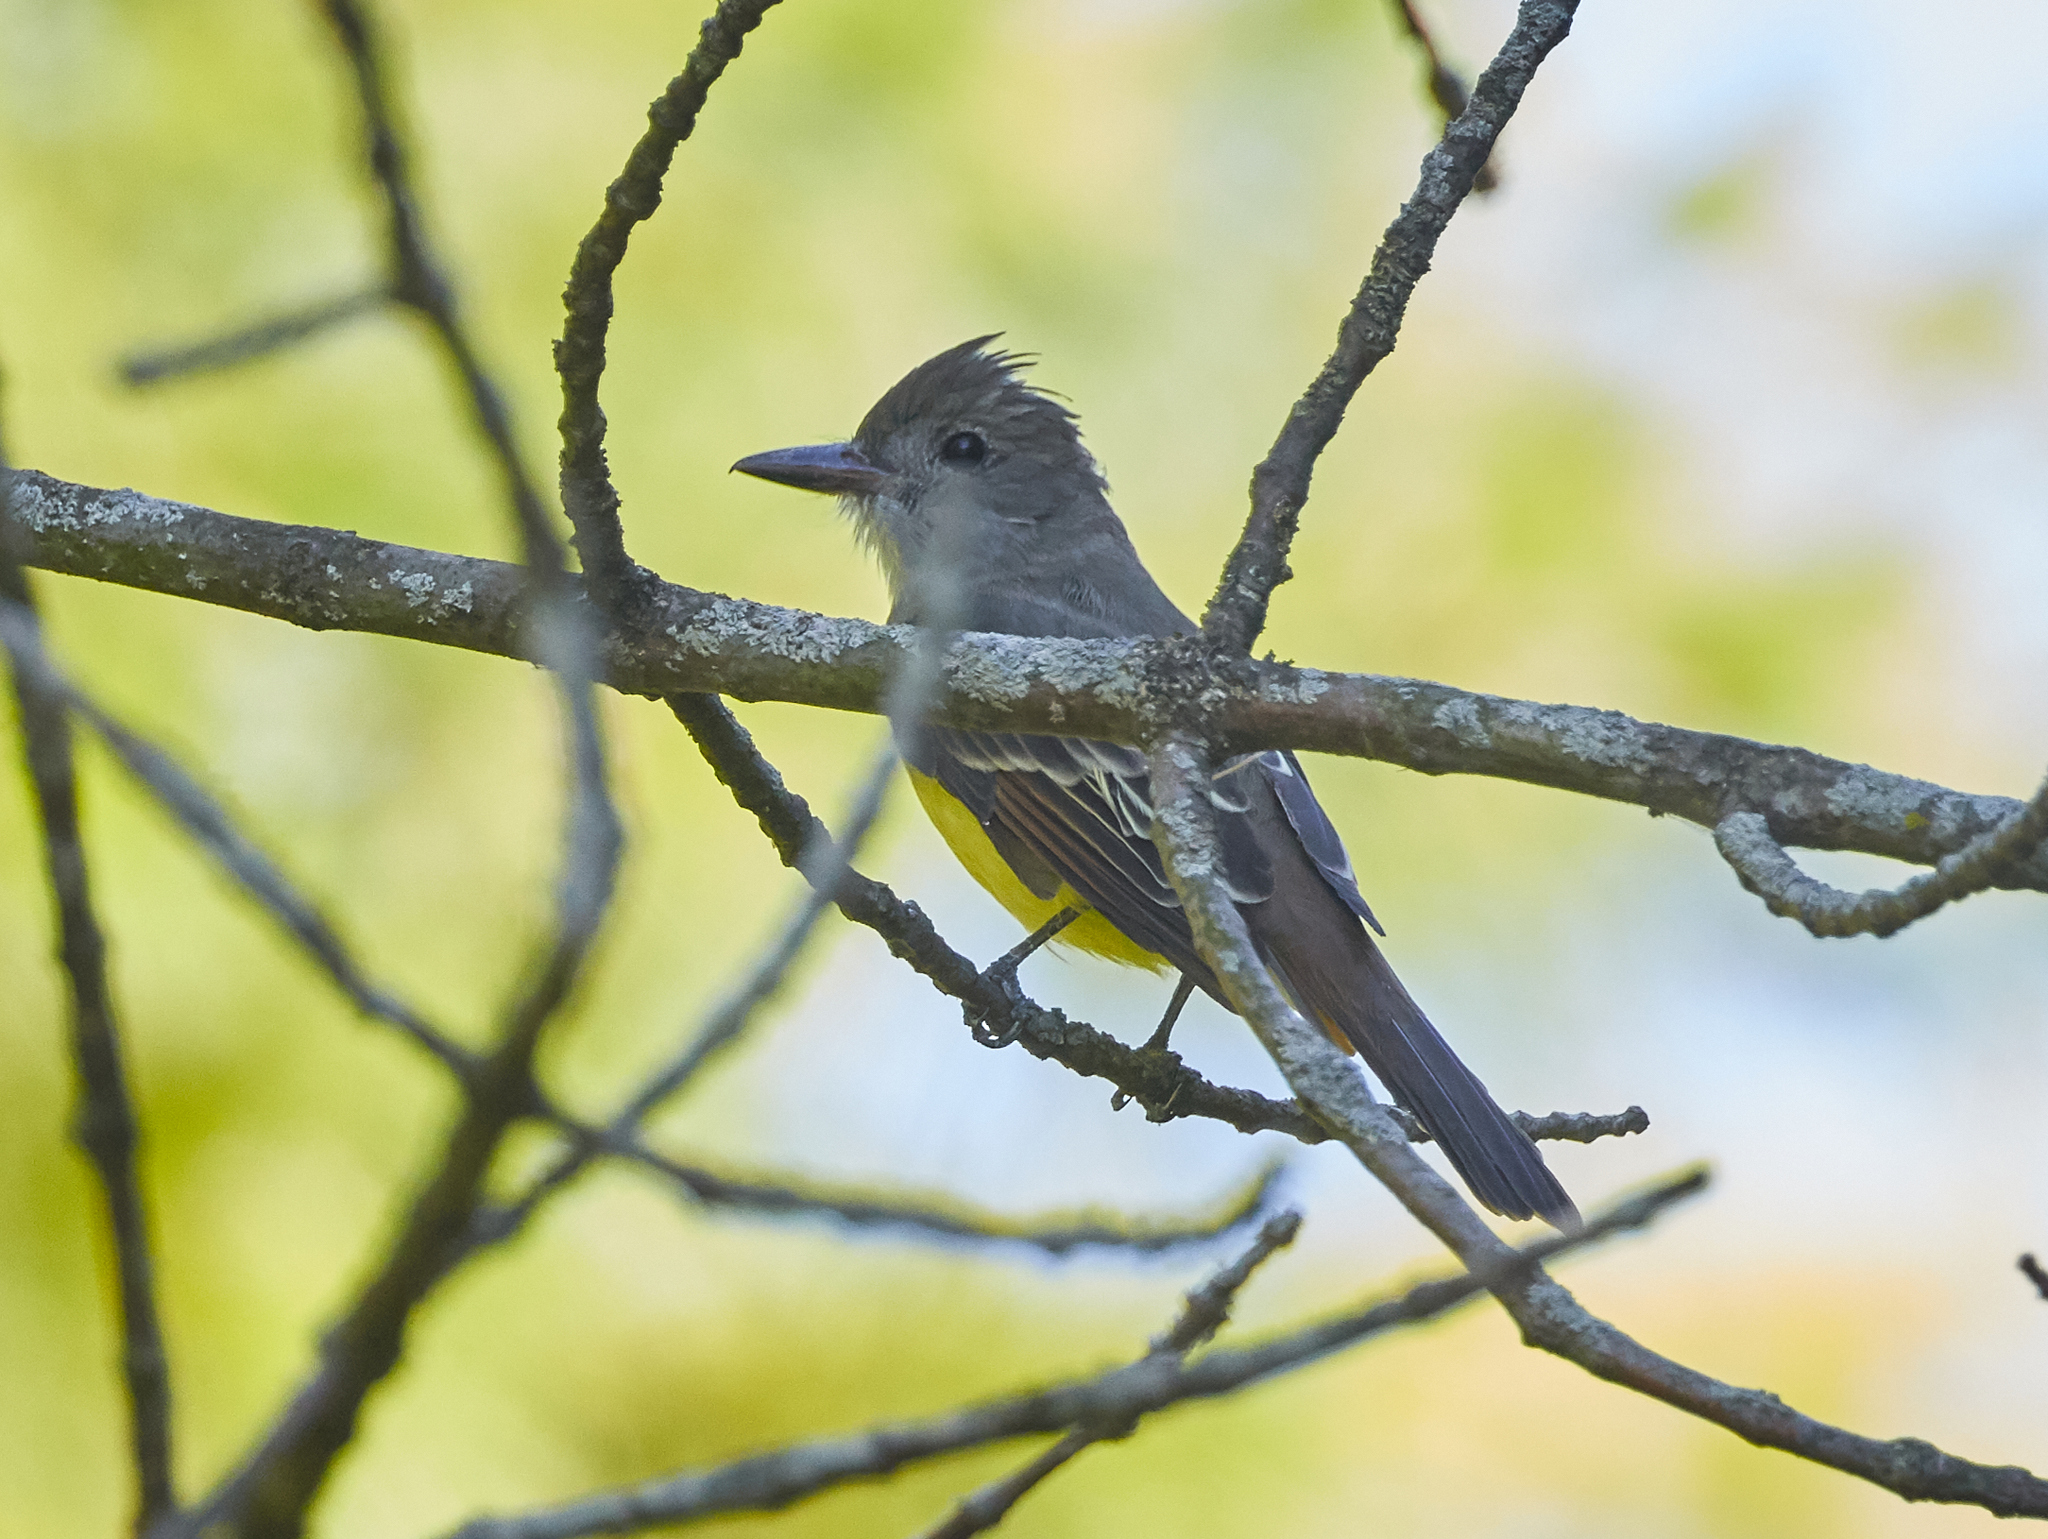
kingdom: Animalia
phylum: Chordata
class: Aves
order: Passeriformes
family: Tyrannidae
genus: Myiarchus
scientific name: Myiarchus crinitus
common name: Great crested flycatcher
